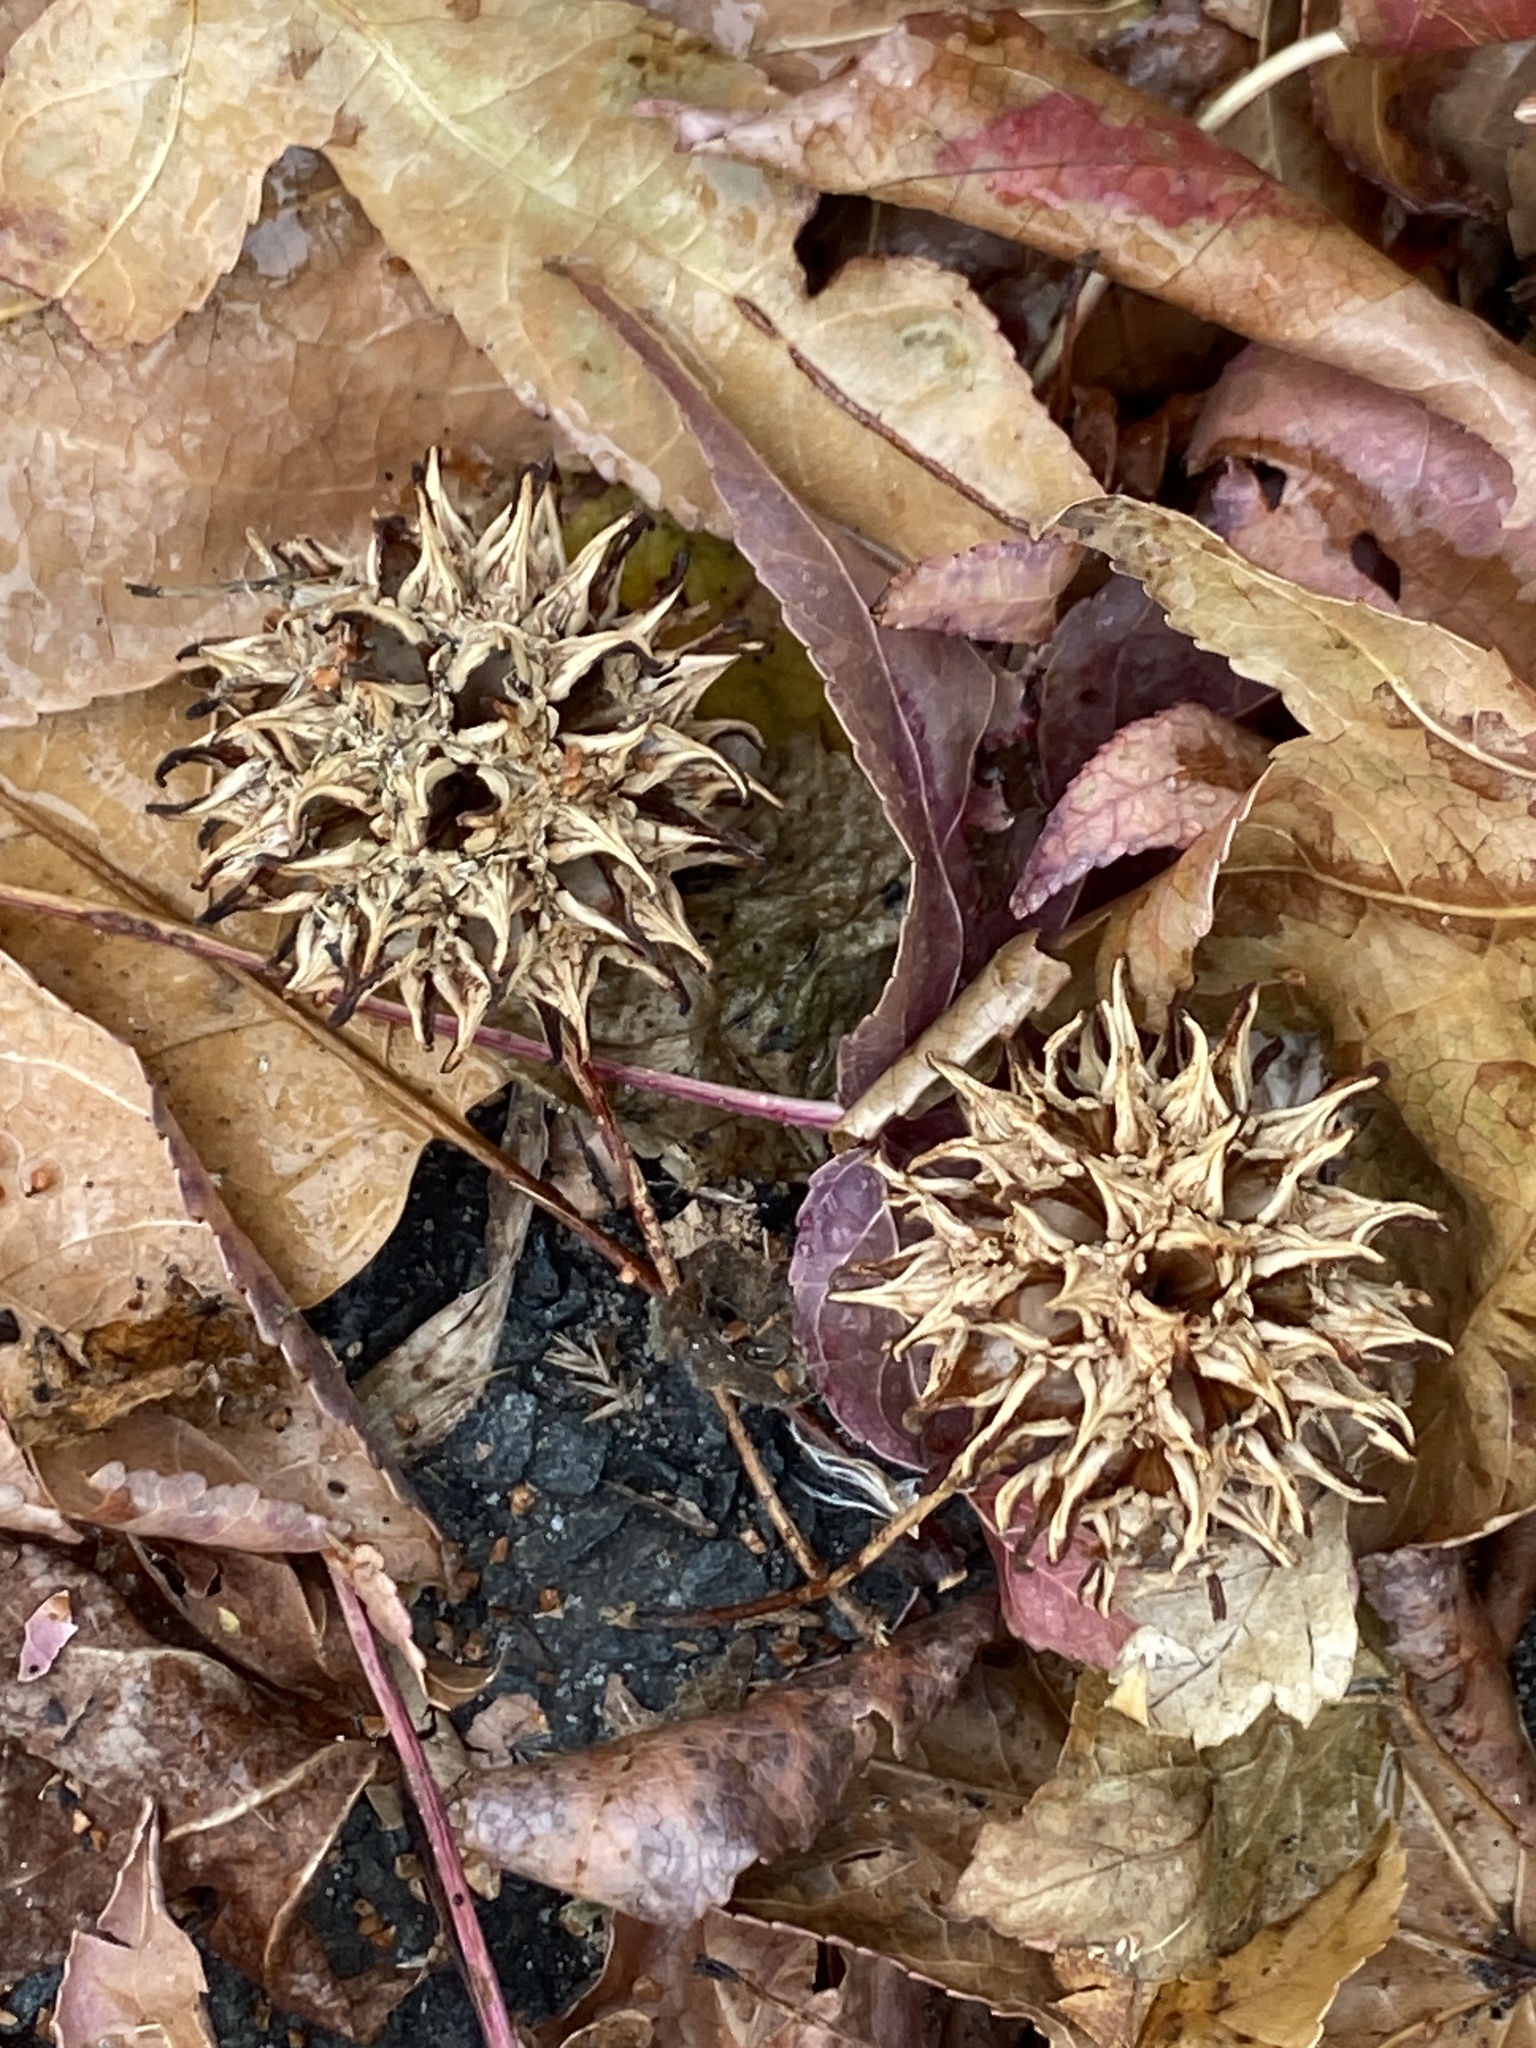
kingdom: Plantae
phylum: Tracheophyta
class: Magnoliopsida
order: Saxifragales
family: Altingiaceae
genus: Liquidambar
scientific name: Liquidambar styraciflua
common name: Sweet gum
